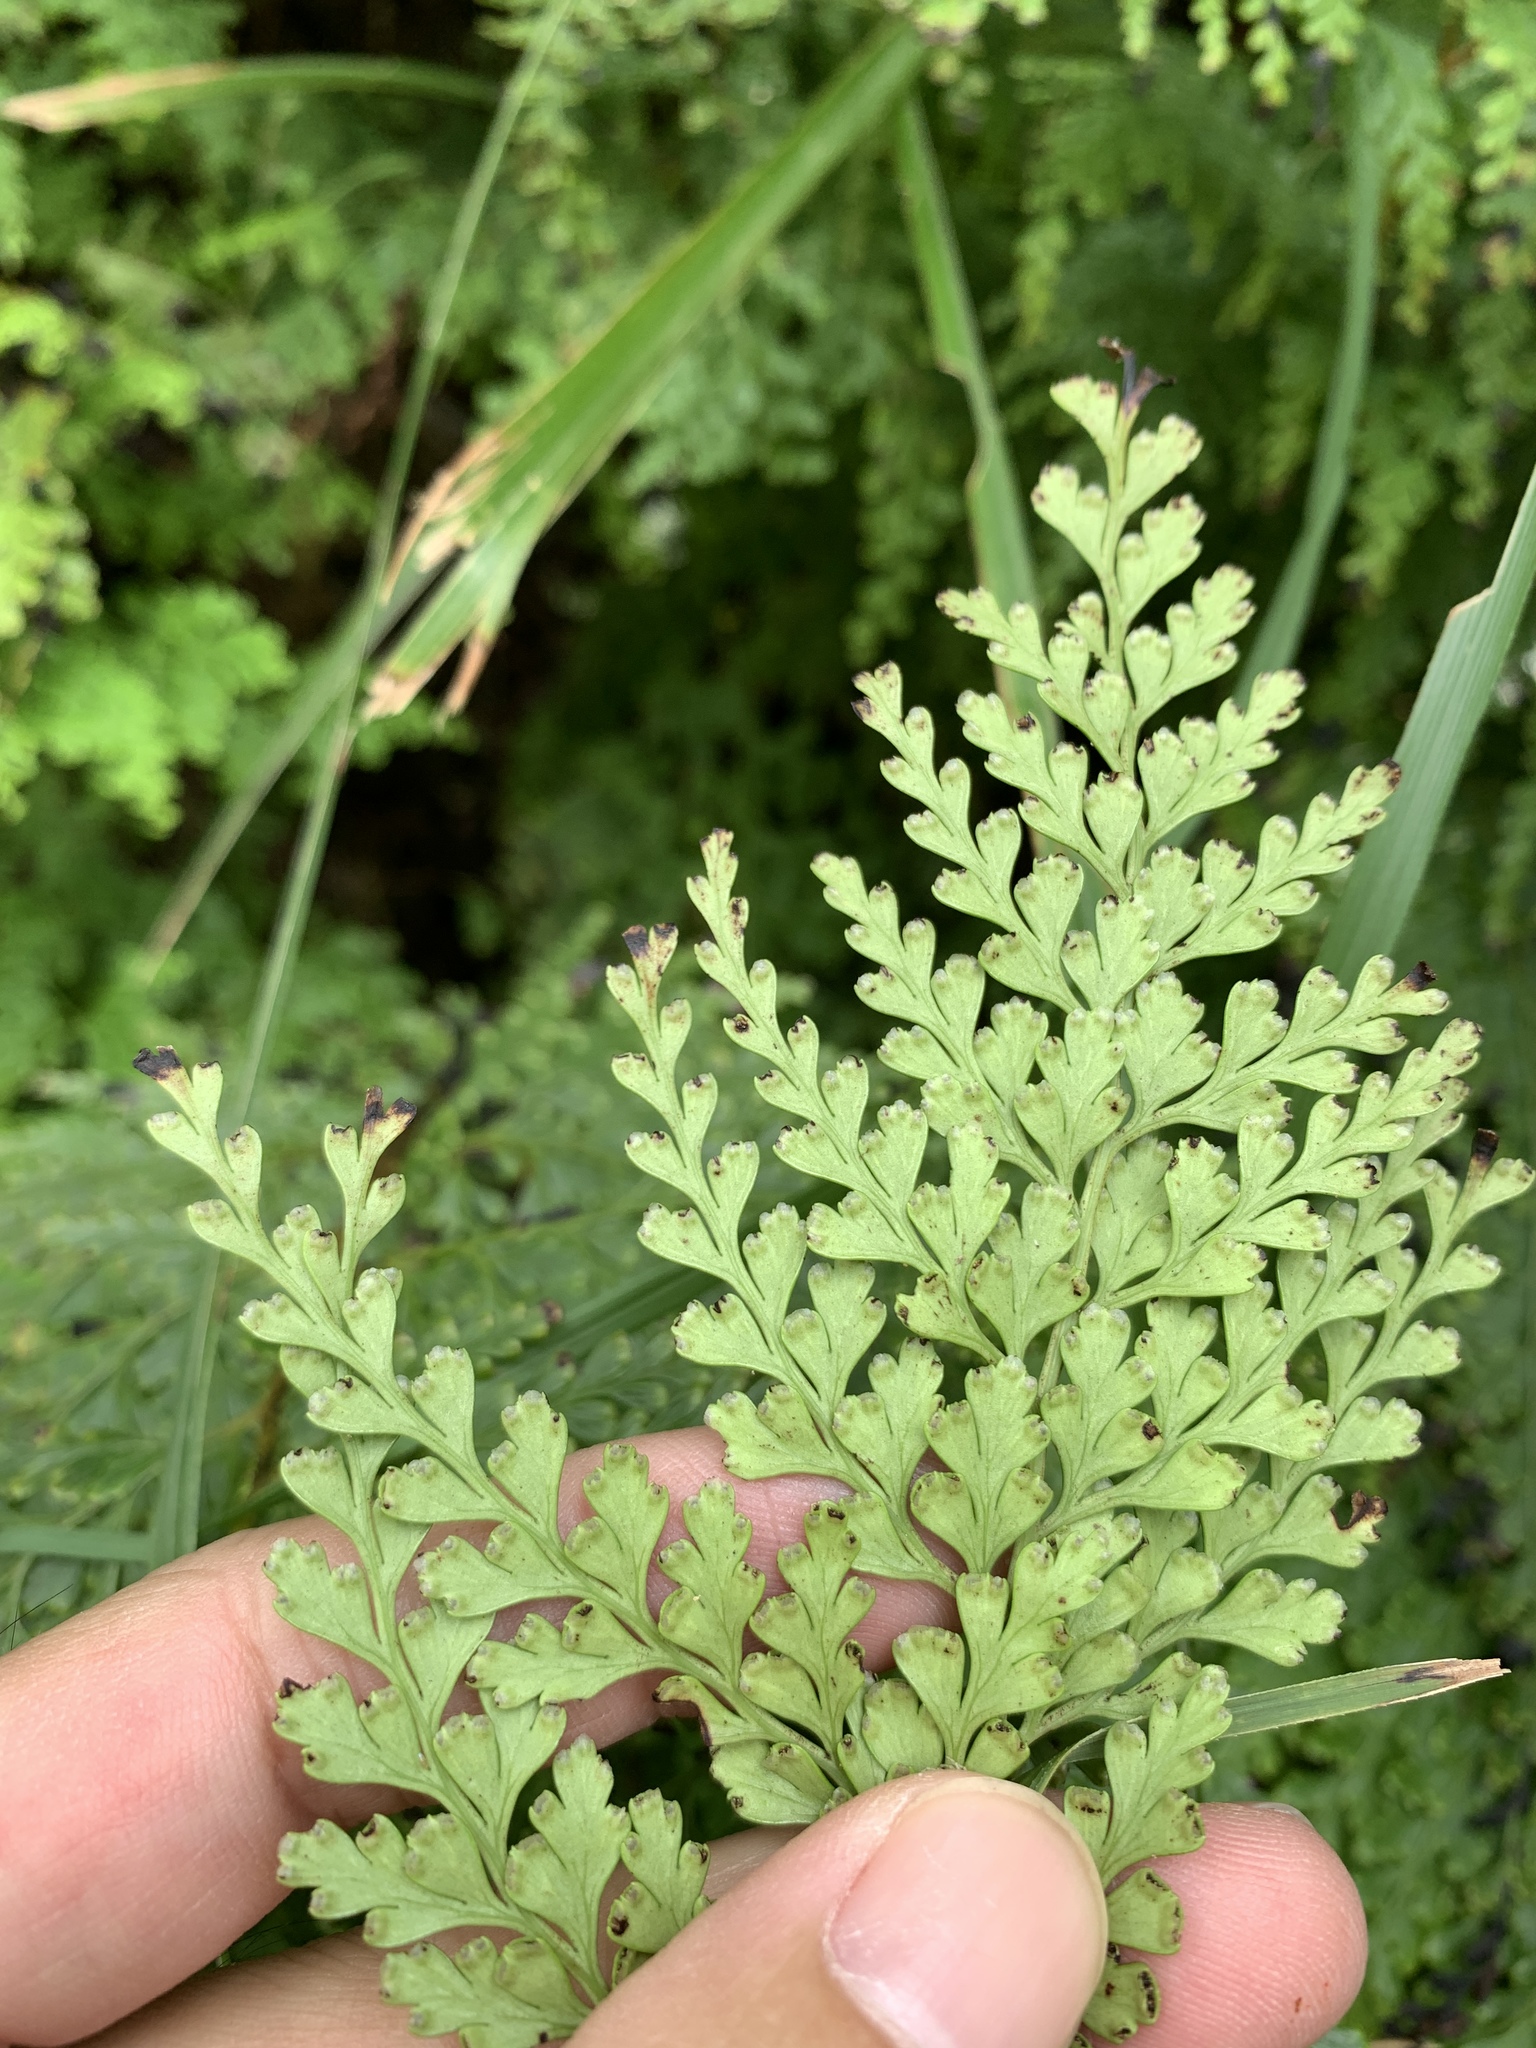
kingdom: Plantae
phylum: Tracheophyta
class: Polypodiopsida
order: Polypodiales
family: Lindsaeaceae
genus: Odontosoria
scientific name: Odontosoria biflora
